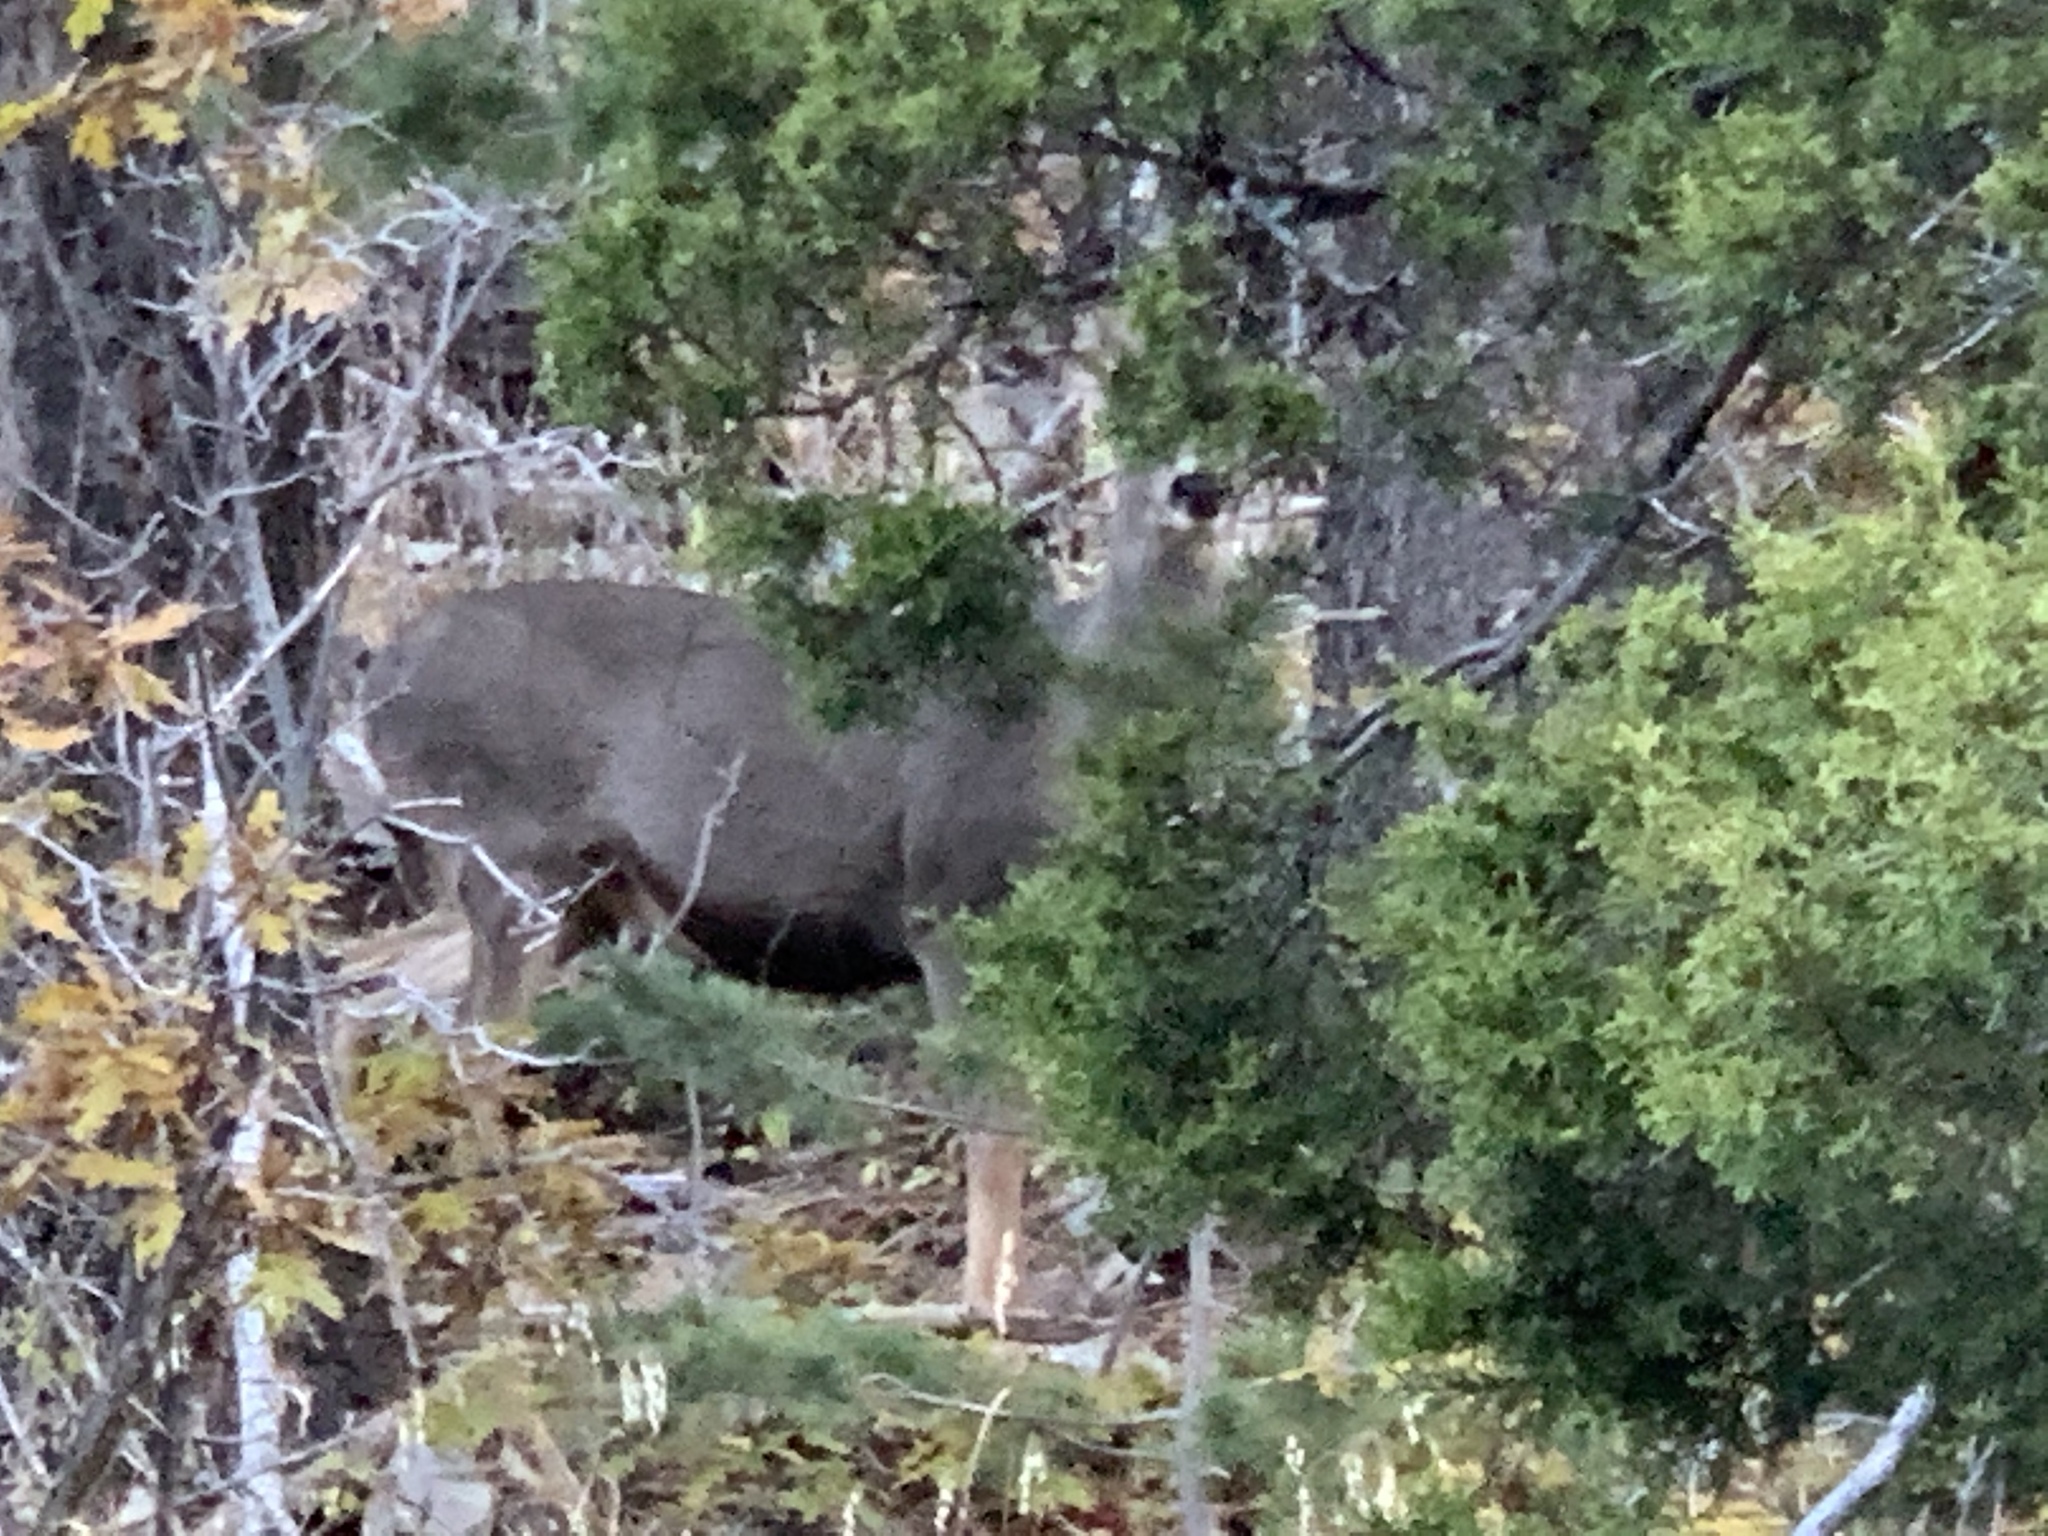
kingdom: Animalia
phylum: Chordata
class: Mammalia
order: Artiodactyla
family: Cervidae
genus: Odocoileus
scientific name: Odocoileus hemionus
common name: Mule deer
